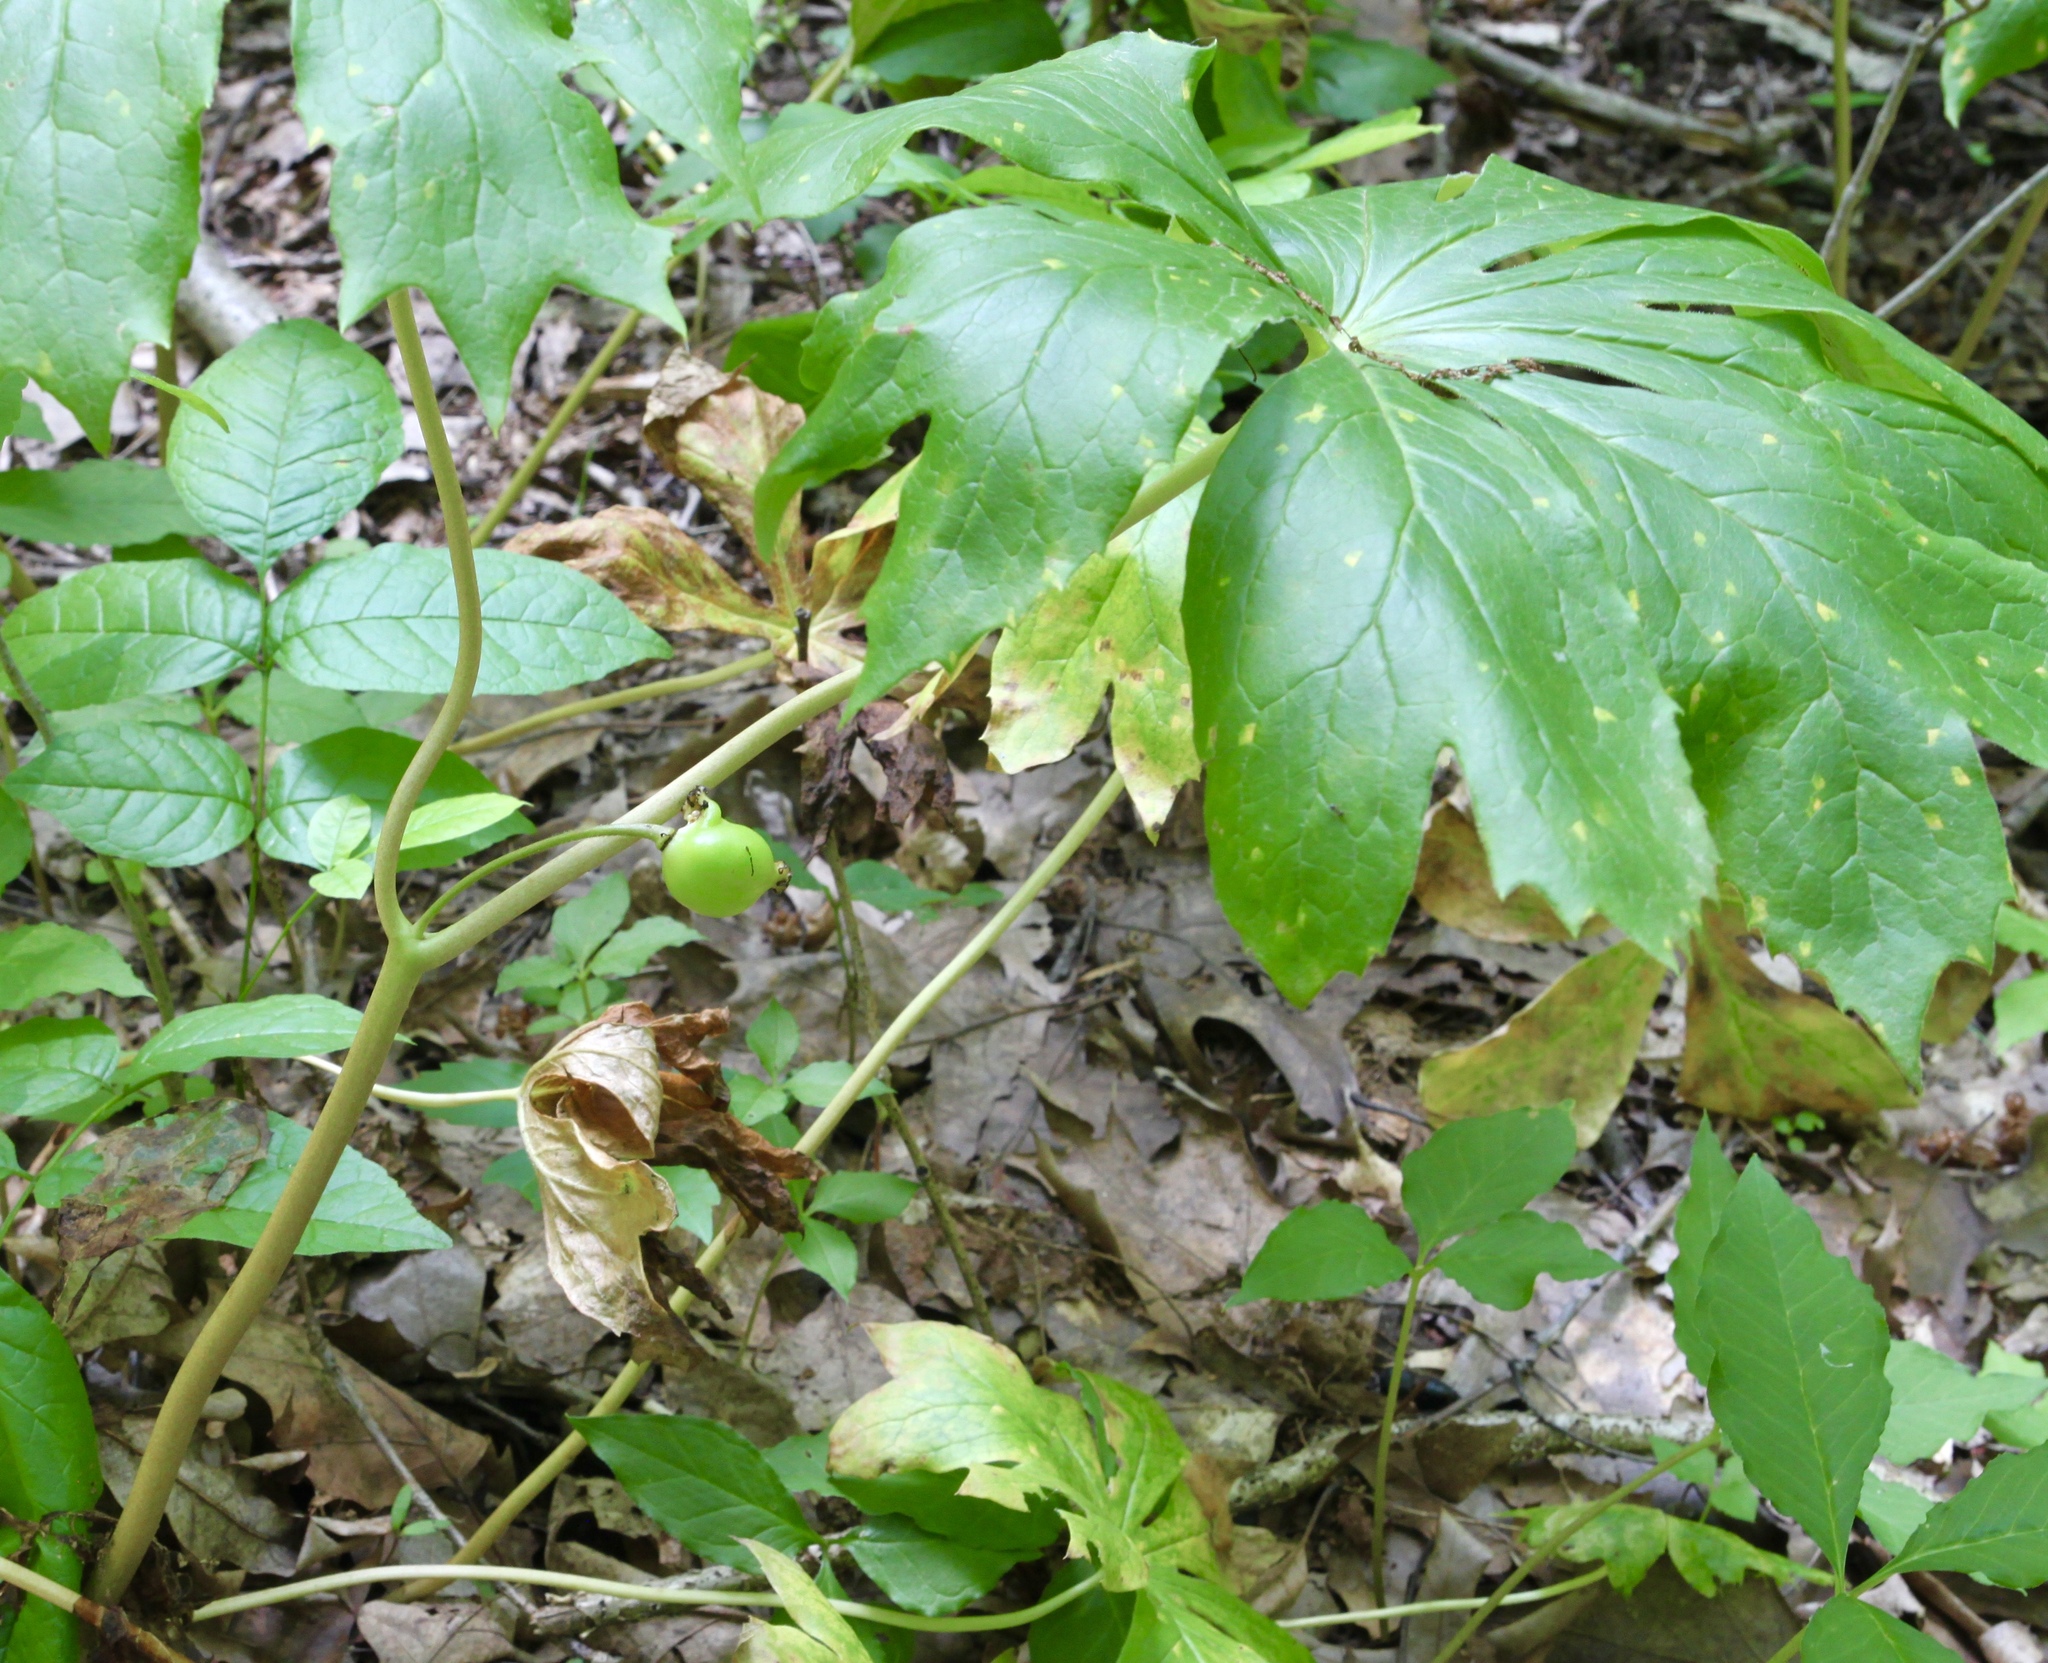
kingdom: Plantae
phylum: Tracheophyta
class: Magnoliopsida
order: Ranunculales
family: Berberidaceae
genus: Podophyllum
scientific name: Podophyllum peltatum
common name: Wild mandrake
